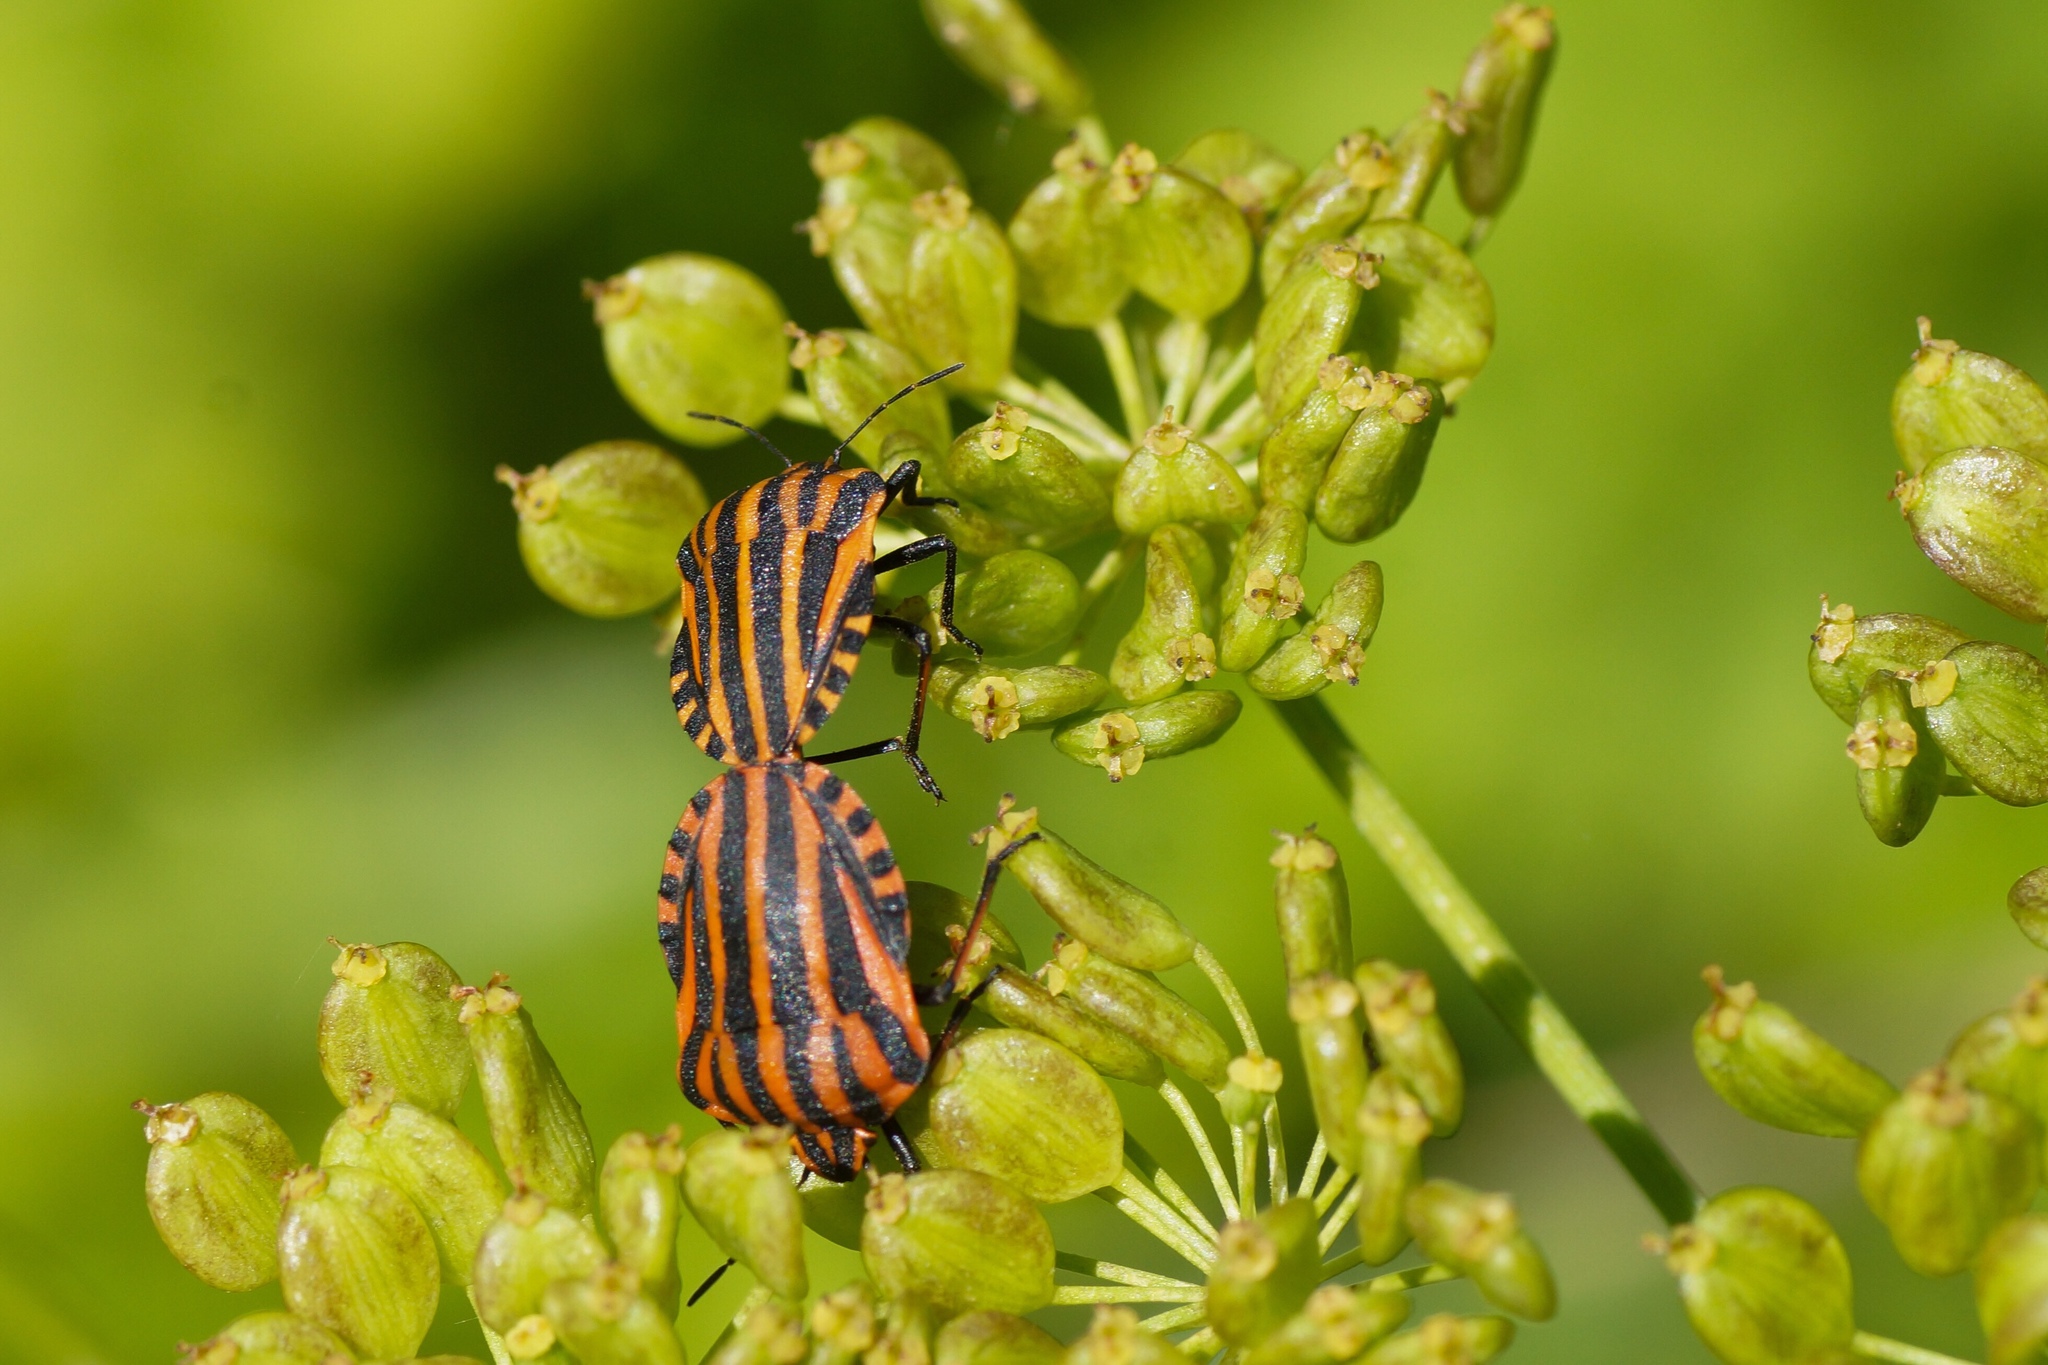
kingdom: Animalia
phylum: Arthropoda
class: Insecta
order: Hemiptera
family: Pentatomidae
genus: Graphosoma
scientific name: Graphosoma italicum
